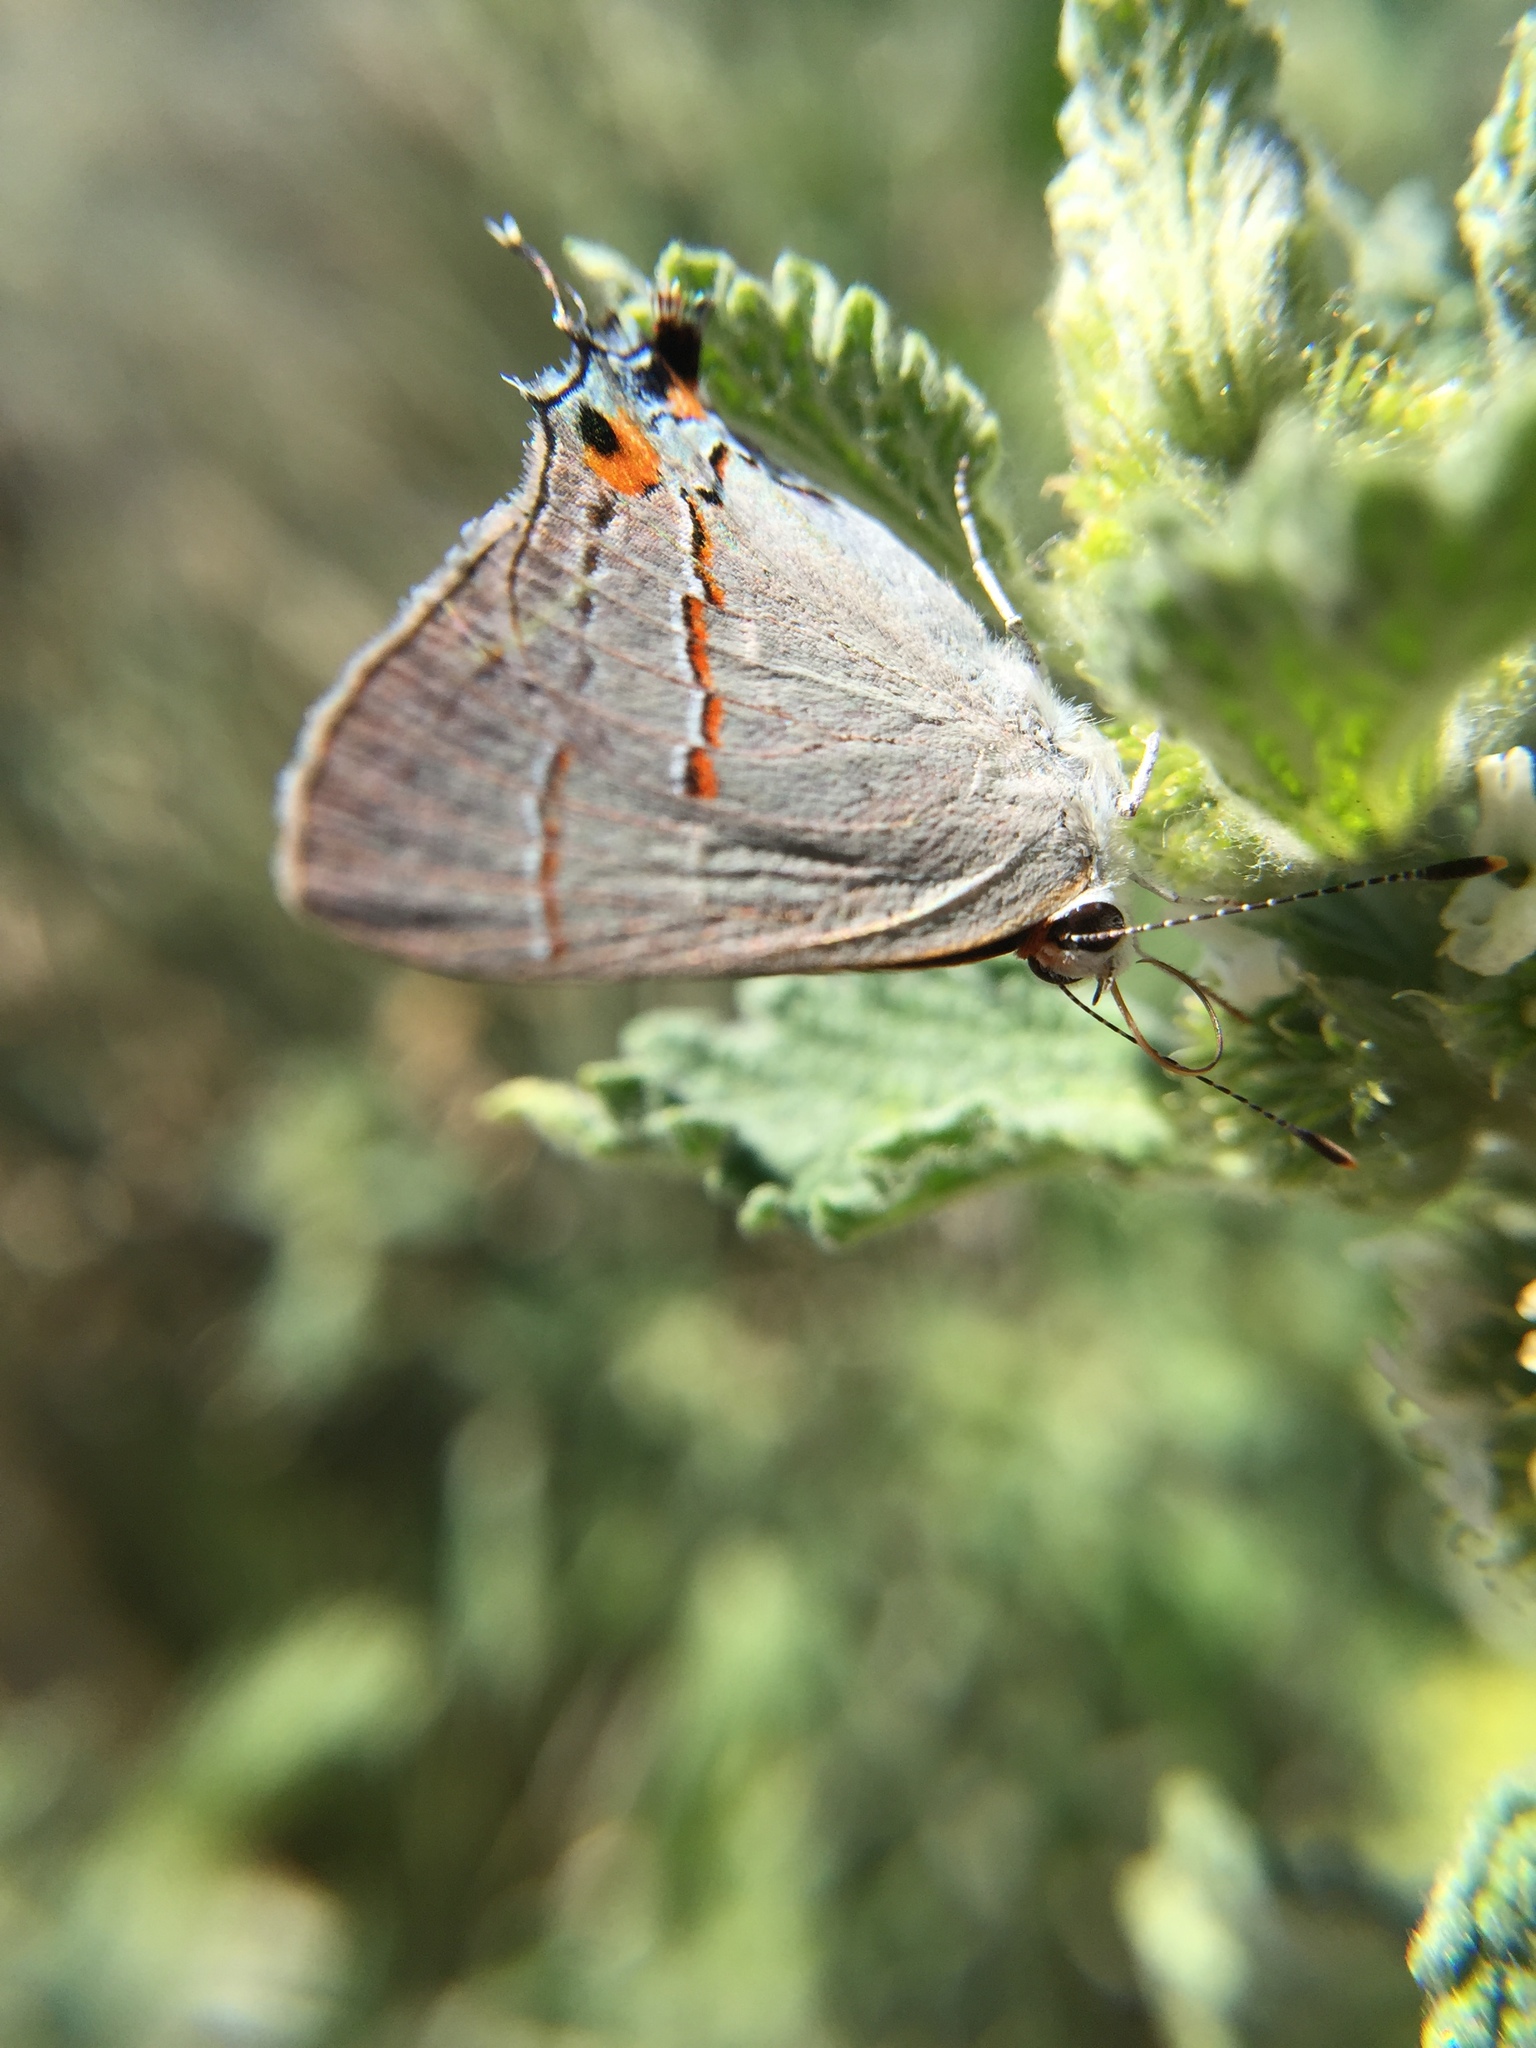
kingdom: Animalia
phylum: Arthropoda
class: Insecta
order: Lepidoptera
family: Lycaenidae
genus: Strymon
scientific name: Strymon melinus
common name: Gray hairstreak
